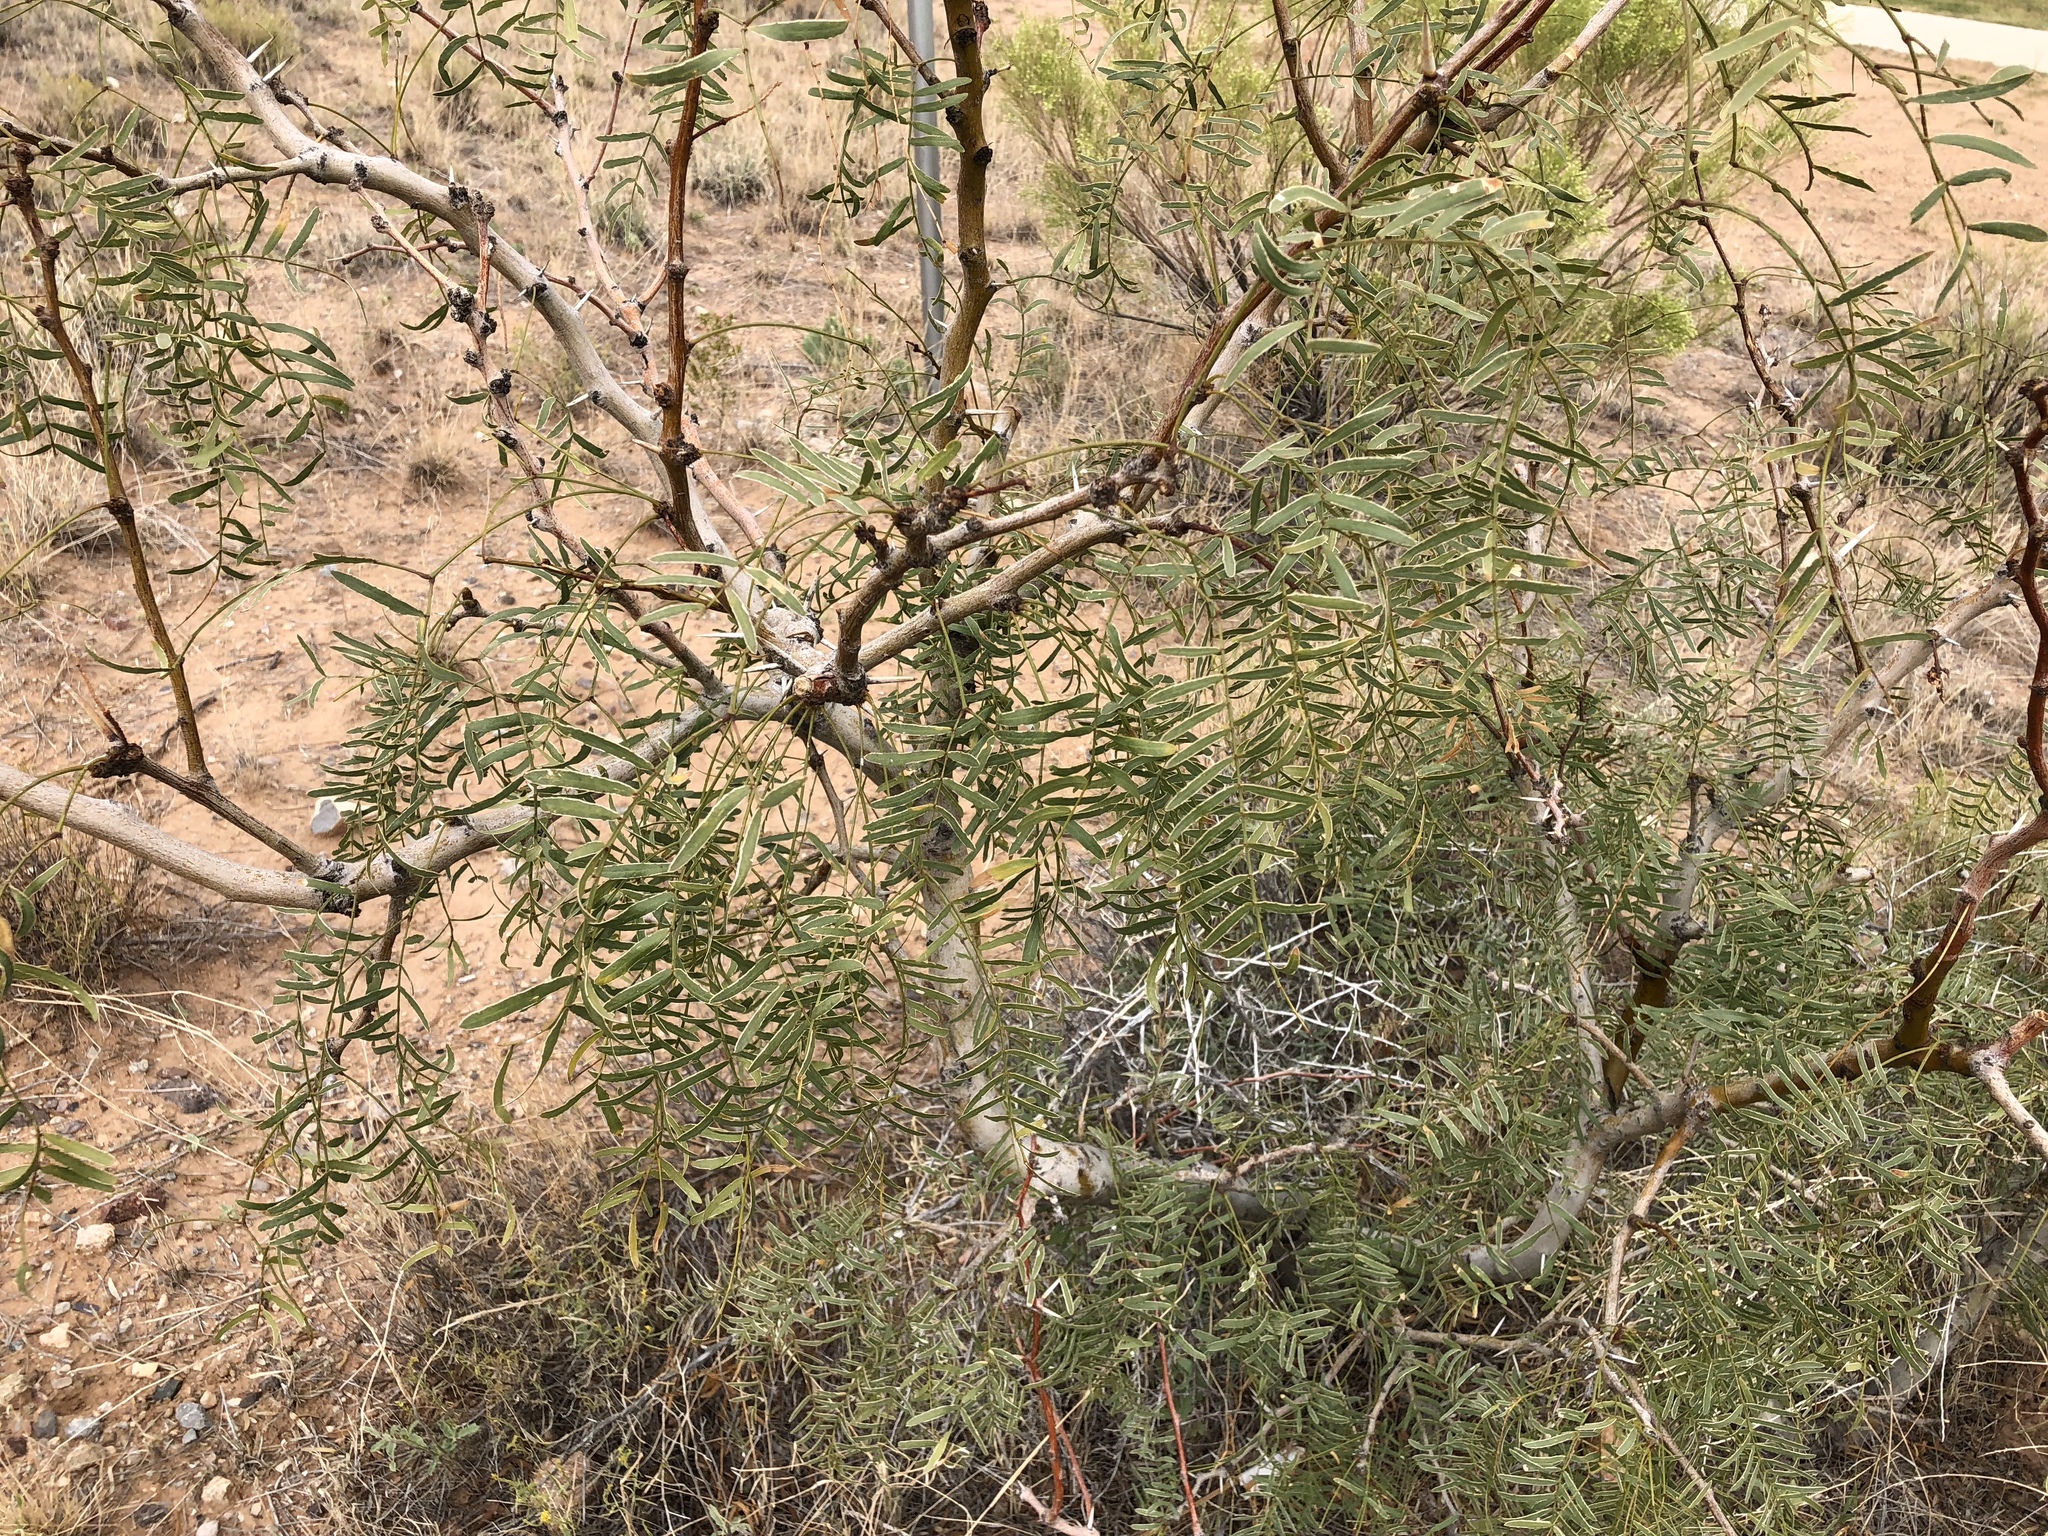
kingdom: Plantae
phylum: Tracheophyta
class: Magnoliopsida
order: Fabales
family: Fabaceae
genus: Prosopis
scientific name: Prosopis glandulosa
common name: Honey mesquite
